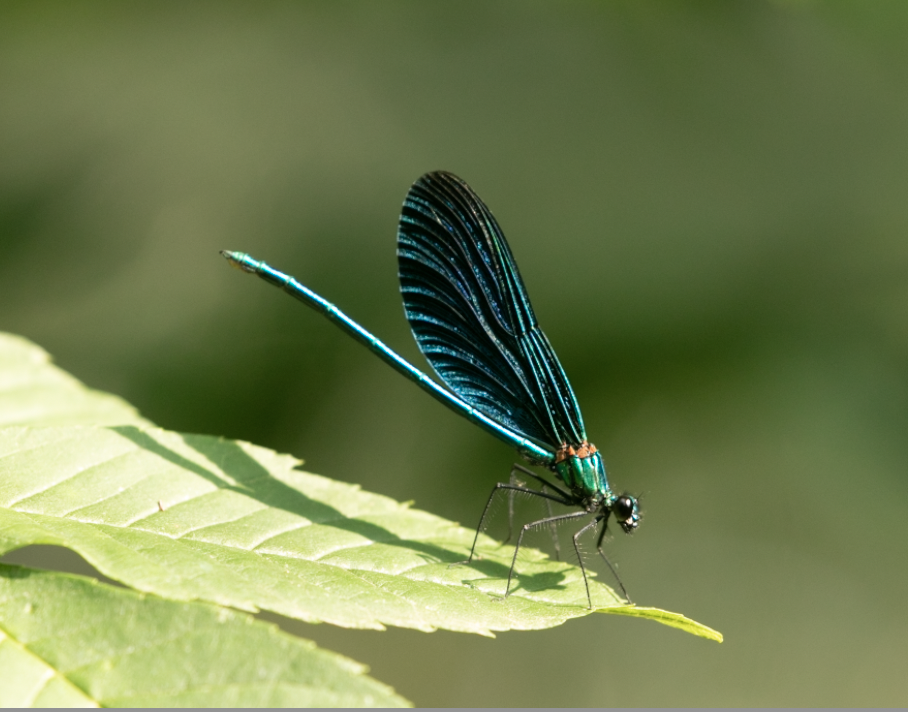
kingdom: Animalia
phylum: Arthropoda
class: Insecta
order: Odonata
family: Calopterygidae
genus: Calopteryx
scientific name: Calopteryx virgo
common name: Beautiful demoiselle
